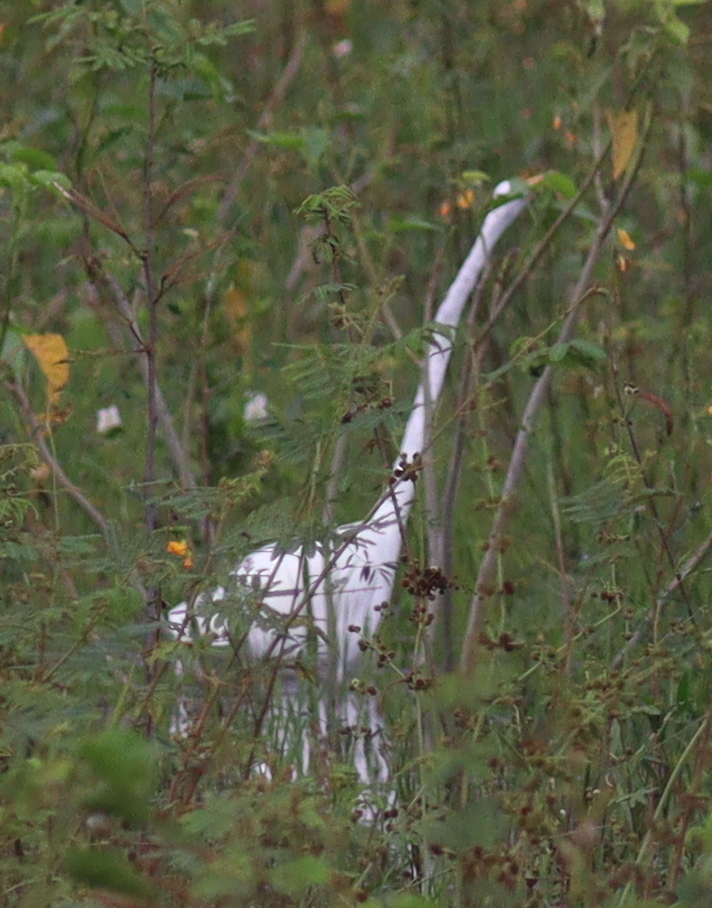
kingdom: Animalia
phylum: Chordata
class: Aves
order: Pelecaniformes
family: Ardeidae
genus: Ardea
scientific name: Ardea alba
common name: Great egret
